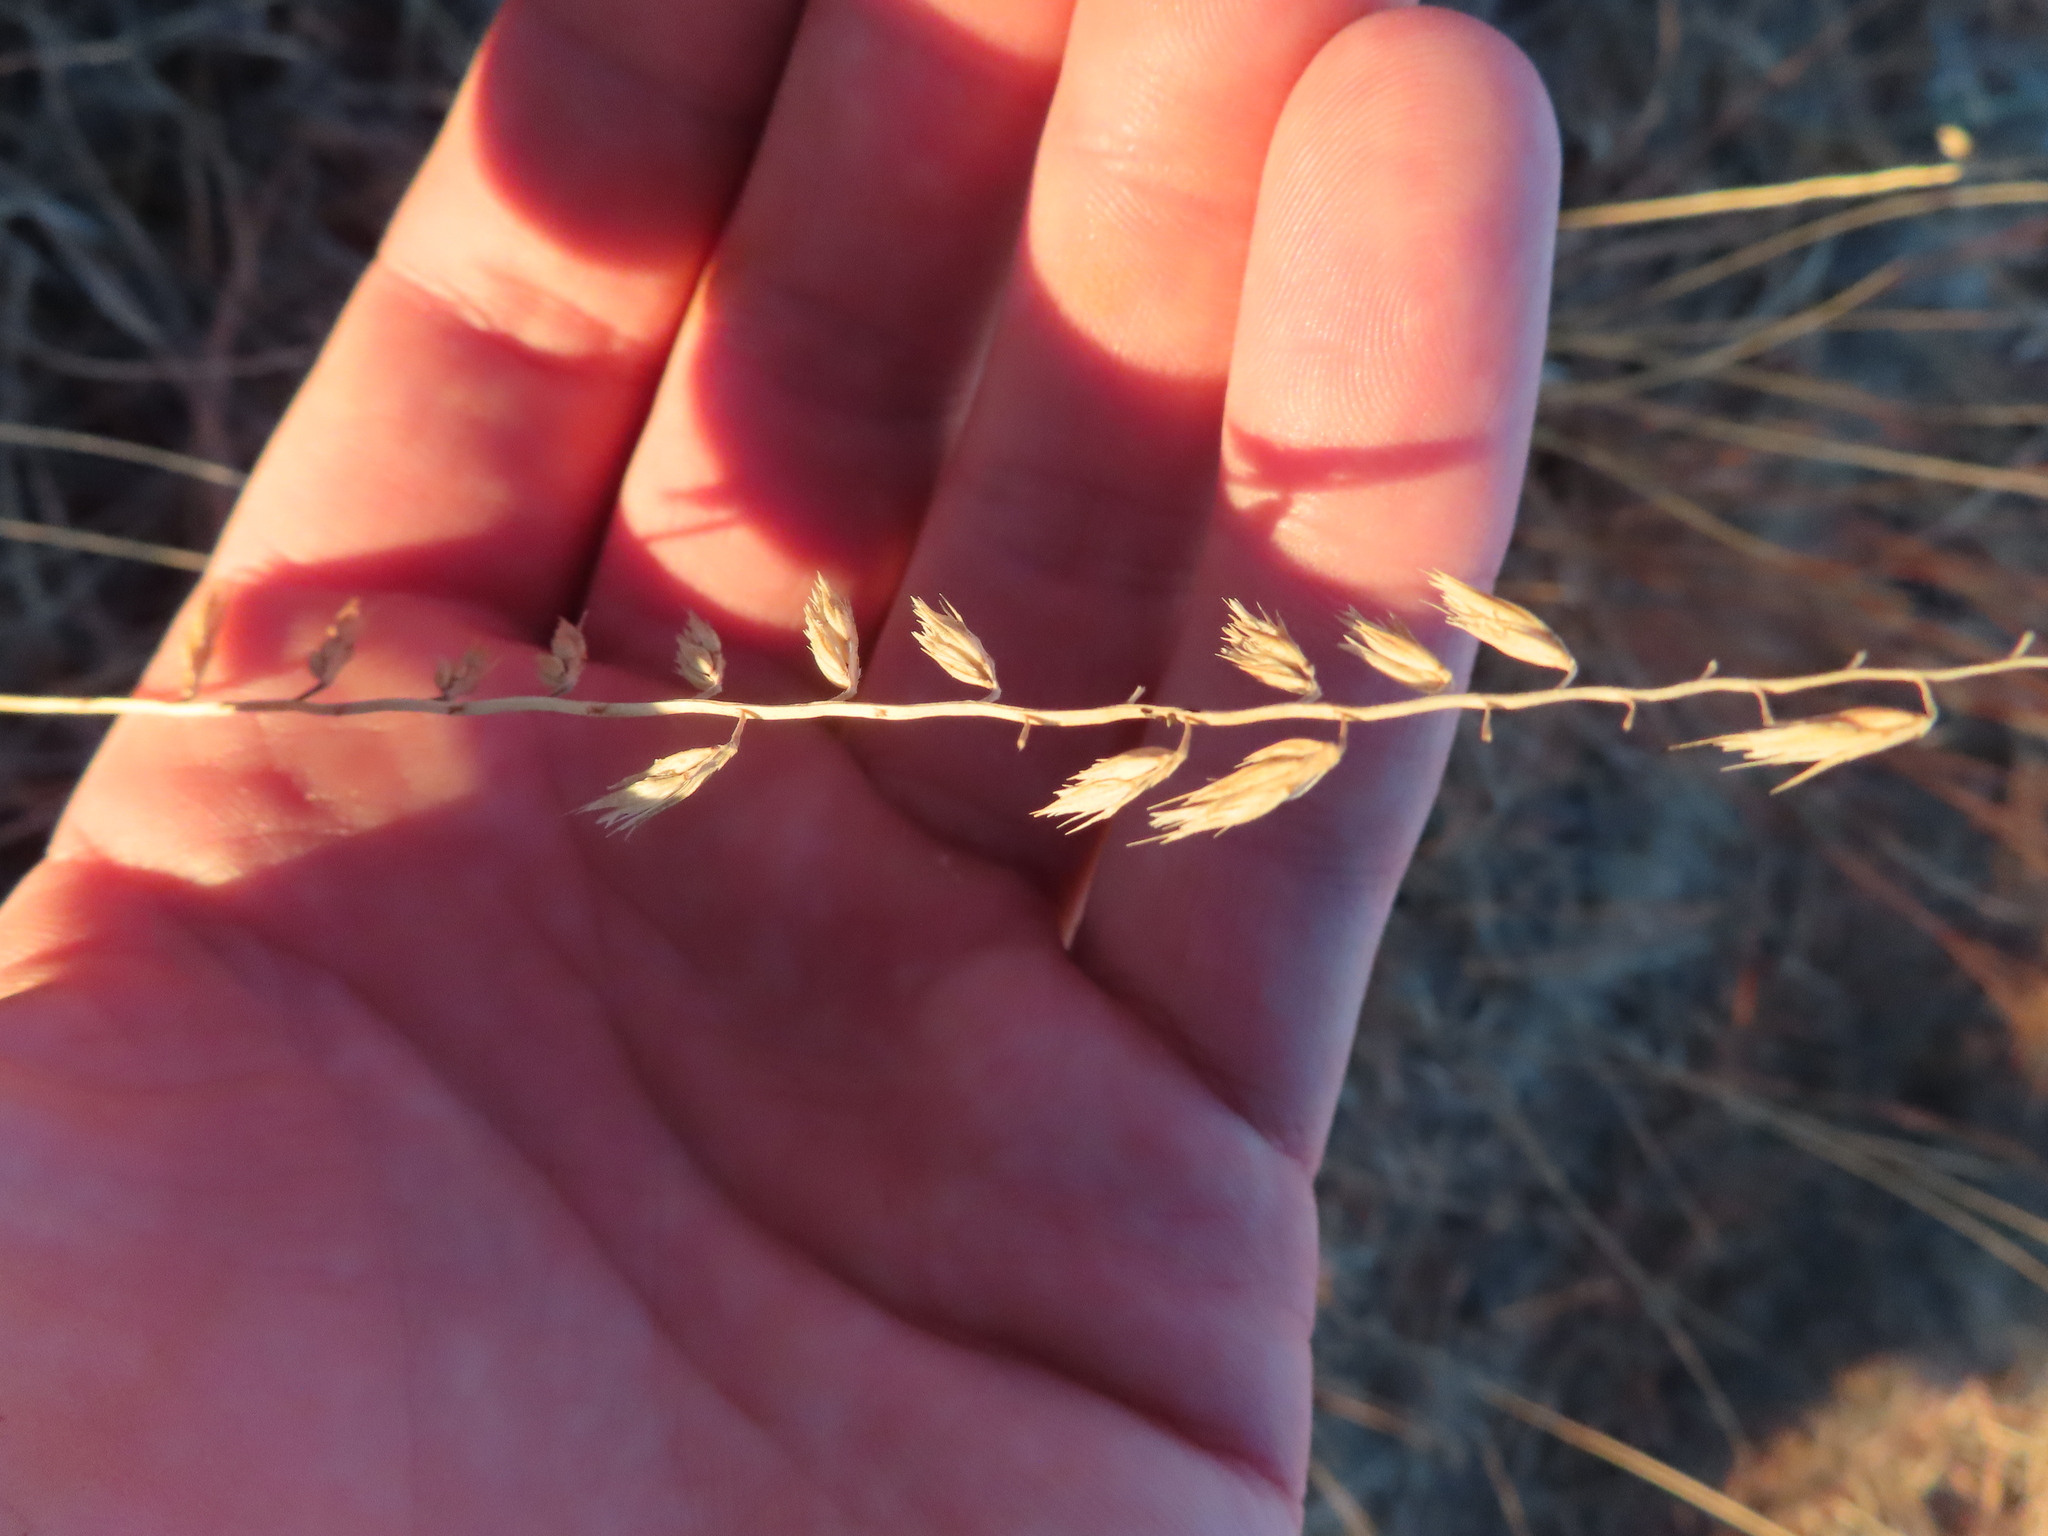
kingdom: Plantae
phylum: Tracheophyta
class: Liliopsida
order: Poales
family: Poaceae
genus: Bouteloua
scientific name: Bouteloua curtipendula
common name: Side-oats grama
